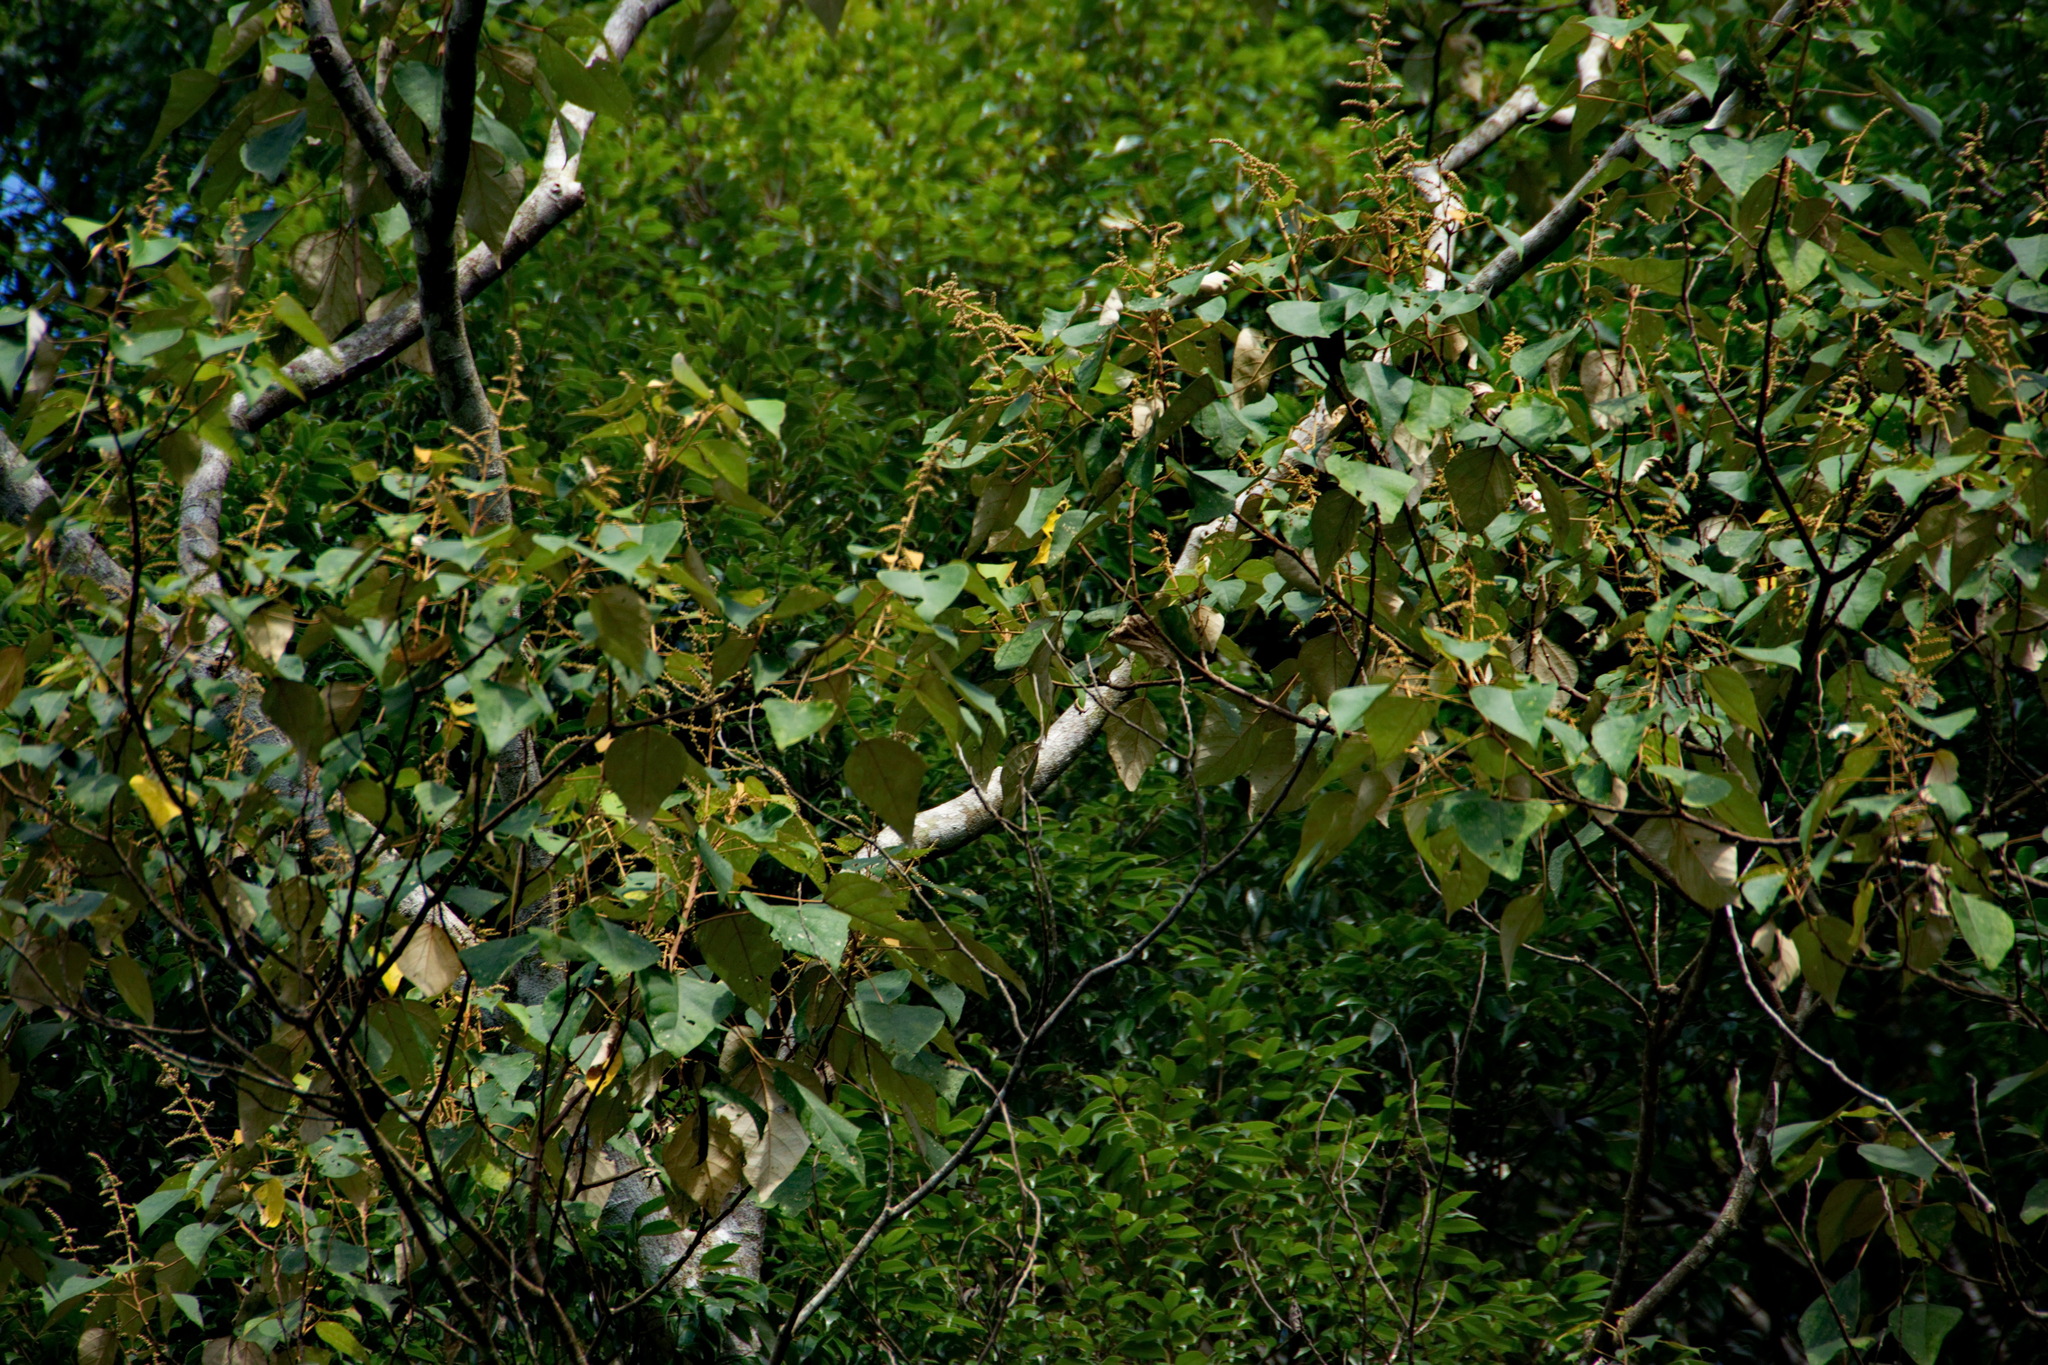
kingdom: Plantae
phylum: Tracheophyta
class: Magnoliopsida
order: Malpighiales
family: Euphorbiaceae
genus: Mallotus
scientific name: Mallotus paniculatus
